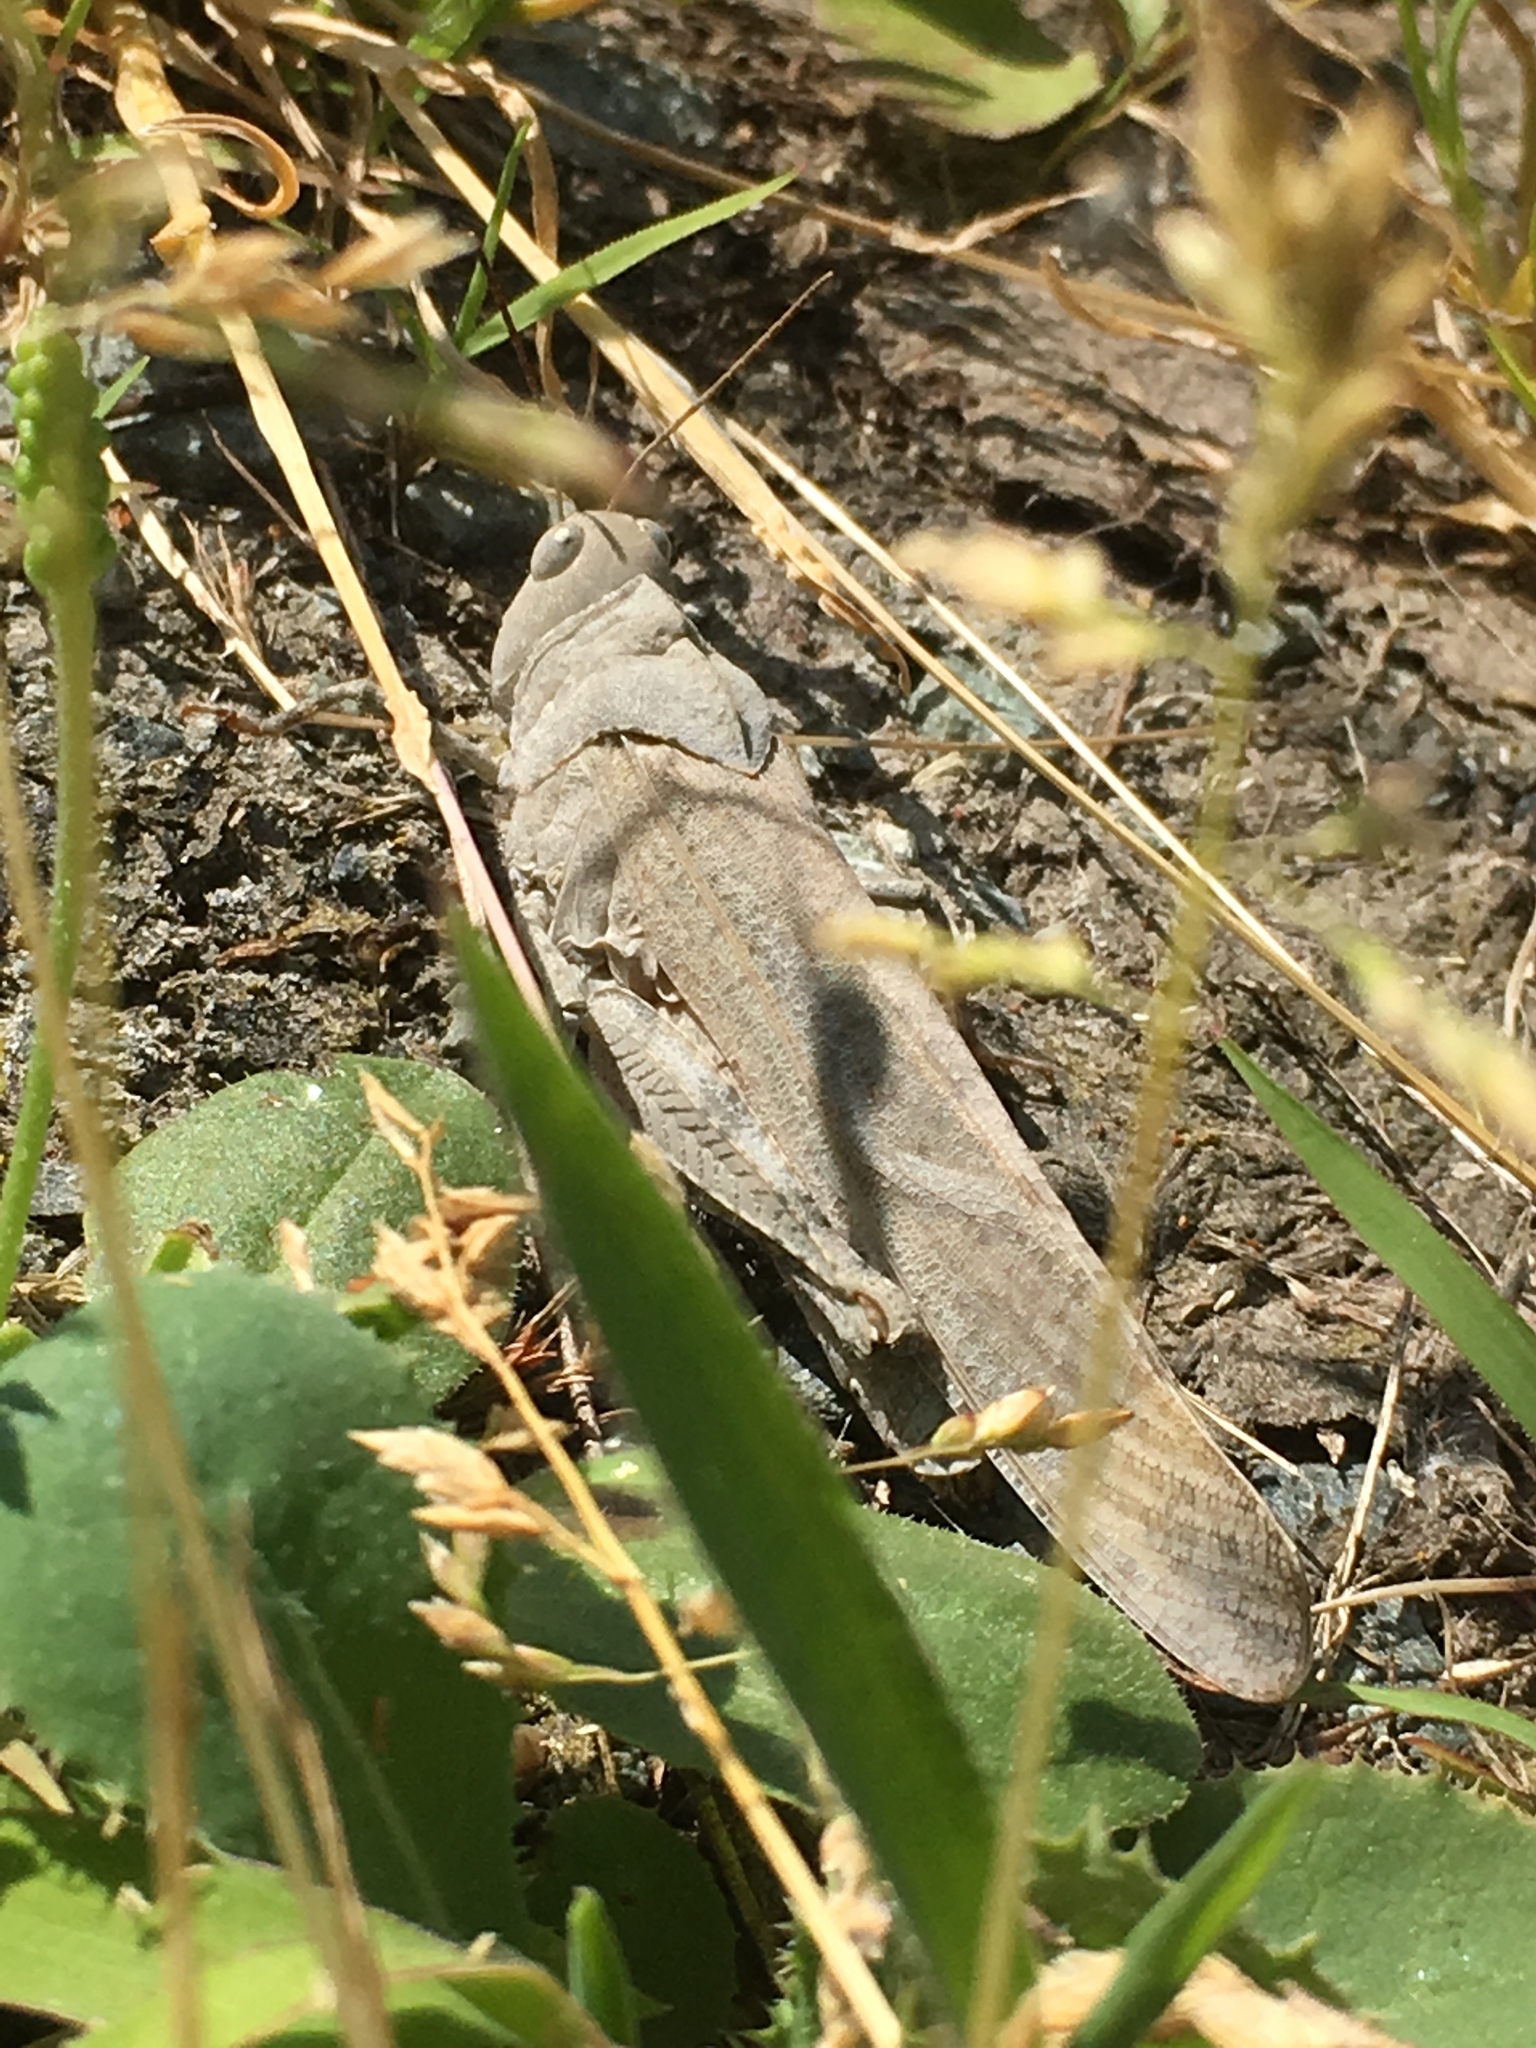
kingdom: Animalia
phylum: Arthropoda
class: Insecta
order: Orthoptera
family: Acrididae
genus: Dissosteira
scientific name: Dissosteira carolina
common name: Carolina grasshopper
